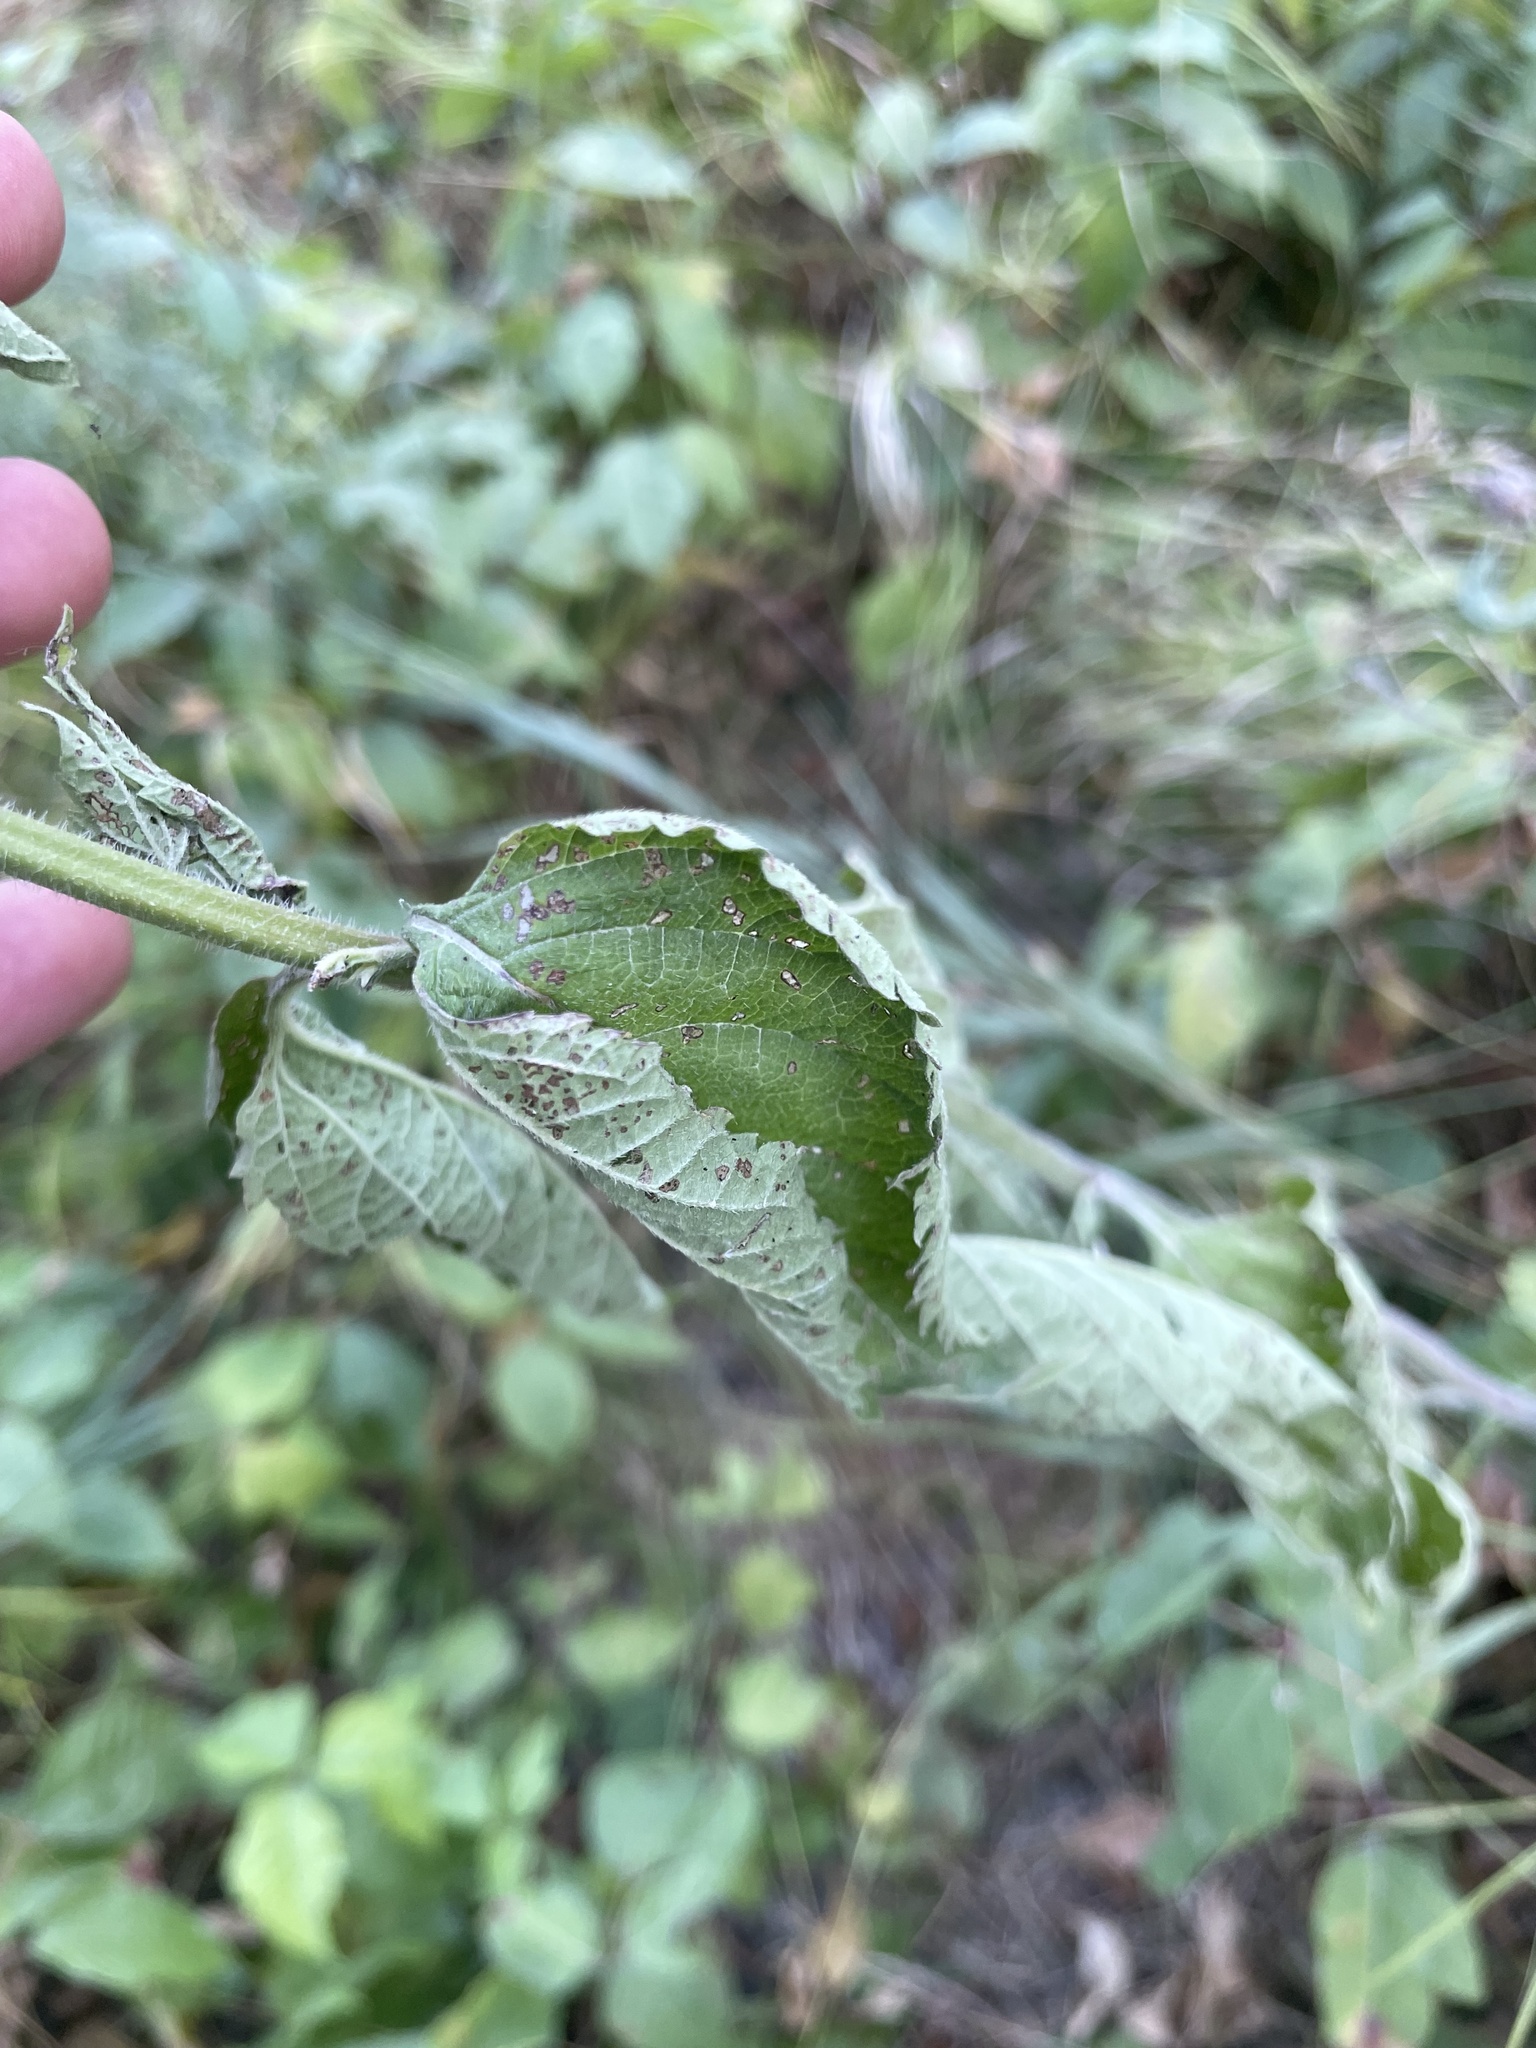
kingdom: Plantae
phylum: Tracheophyta
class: Magnoliopsida
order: Lamiales
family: Verbenaceae
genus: Verbena
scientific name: Verbena urticifolia
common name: Nettle-leaved vervain
